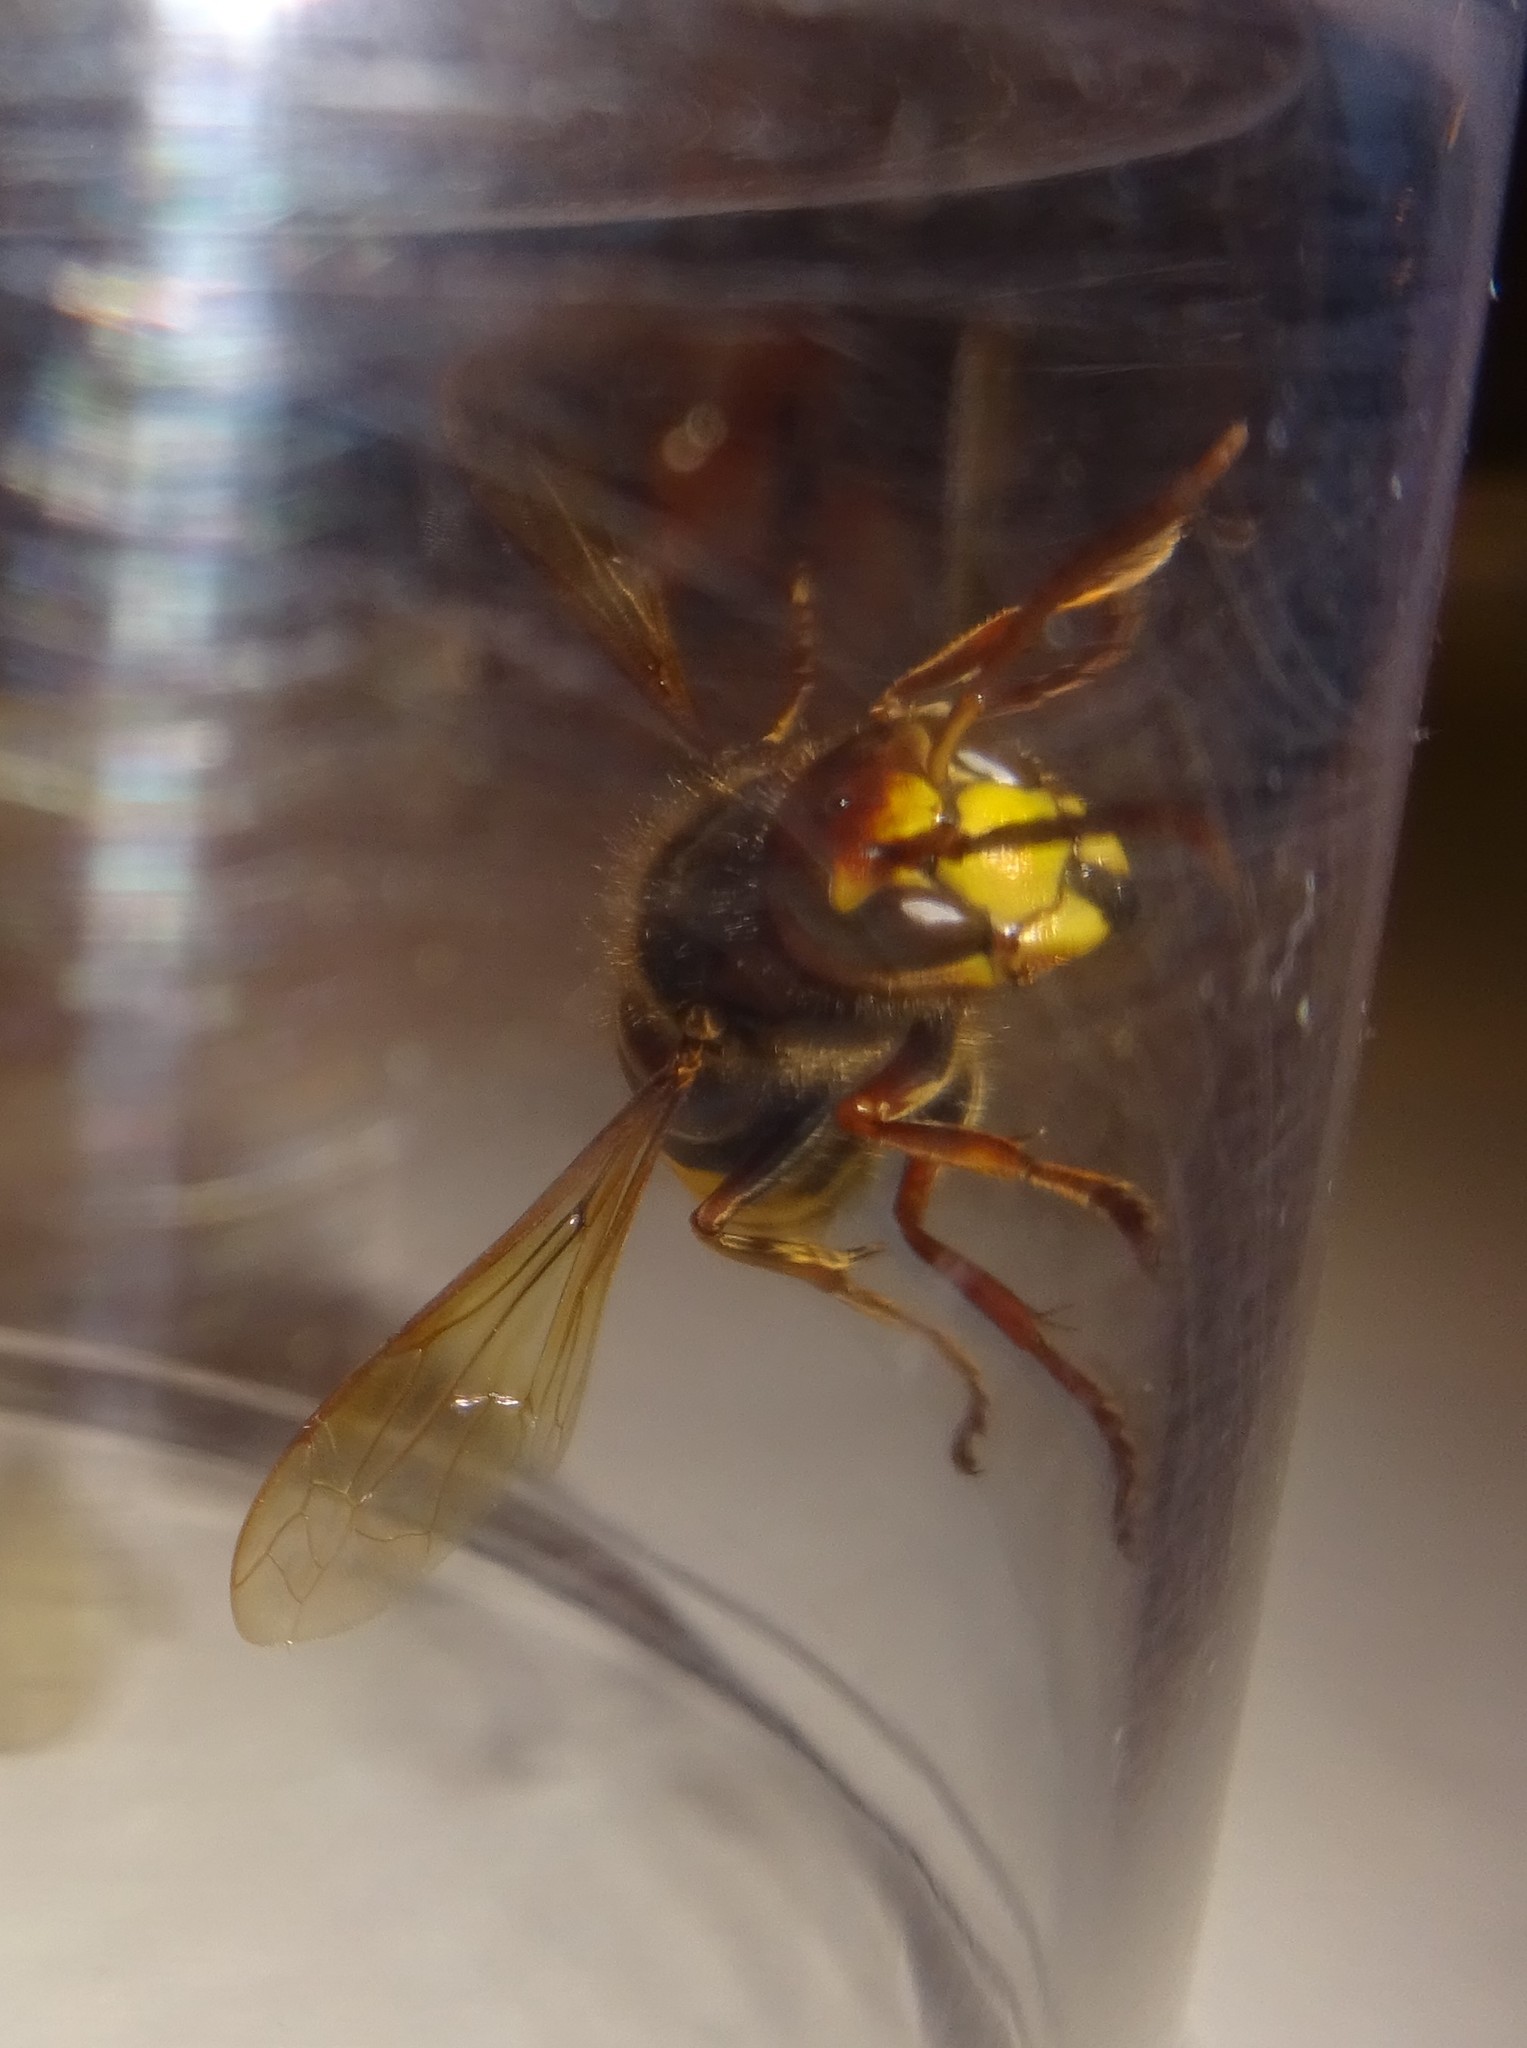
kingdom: Animalia
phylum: Arthropoda
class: Insecta
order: Hymenoptera
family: Vespidae
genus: Vespa
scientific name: Vespa crabro
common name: Hornet
